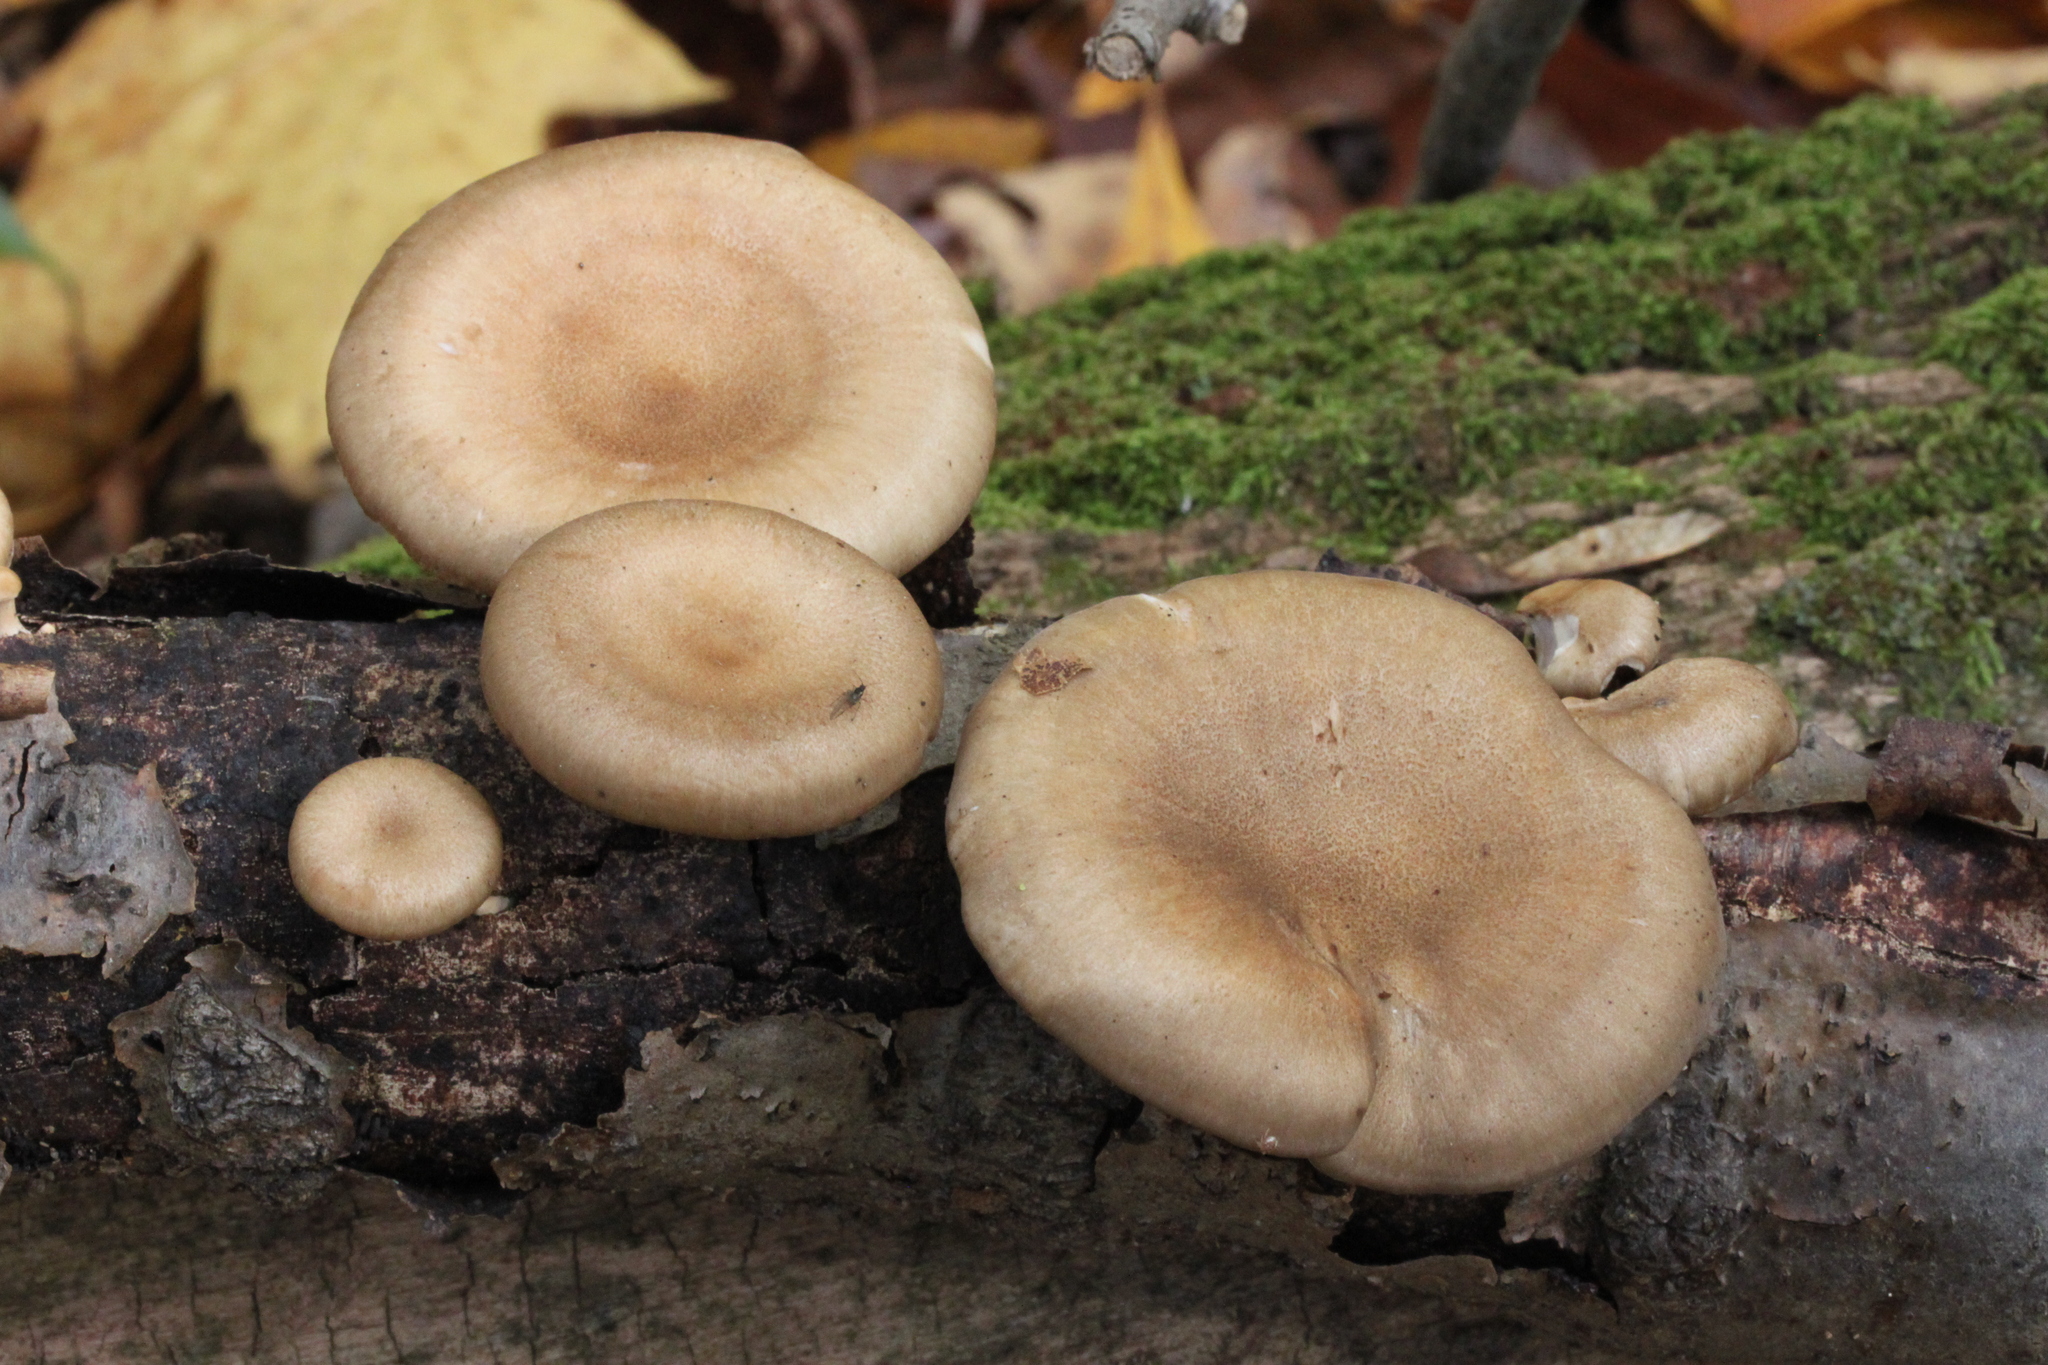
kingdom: Fungi
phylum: Basidiomycota
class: Agaricomycetes
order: Polyporales
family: Polyporaceae
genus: Lentinus
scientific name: Lentinus brumalis
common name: Winter polypore
